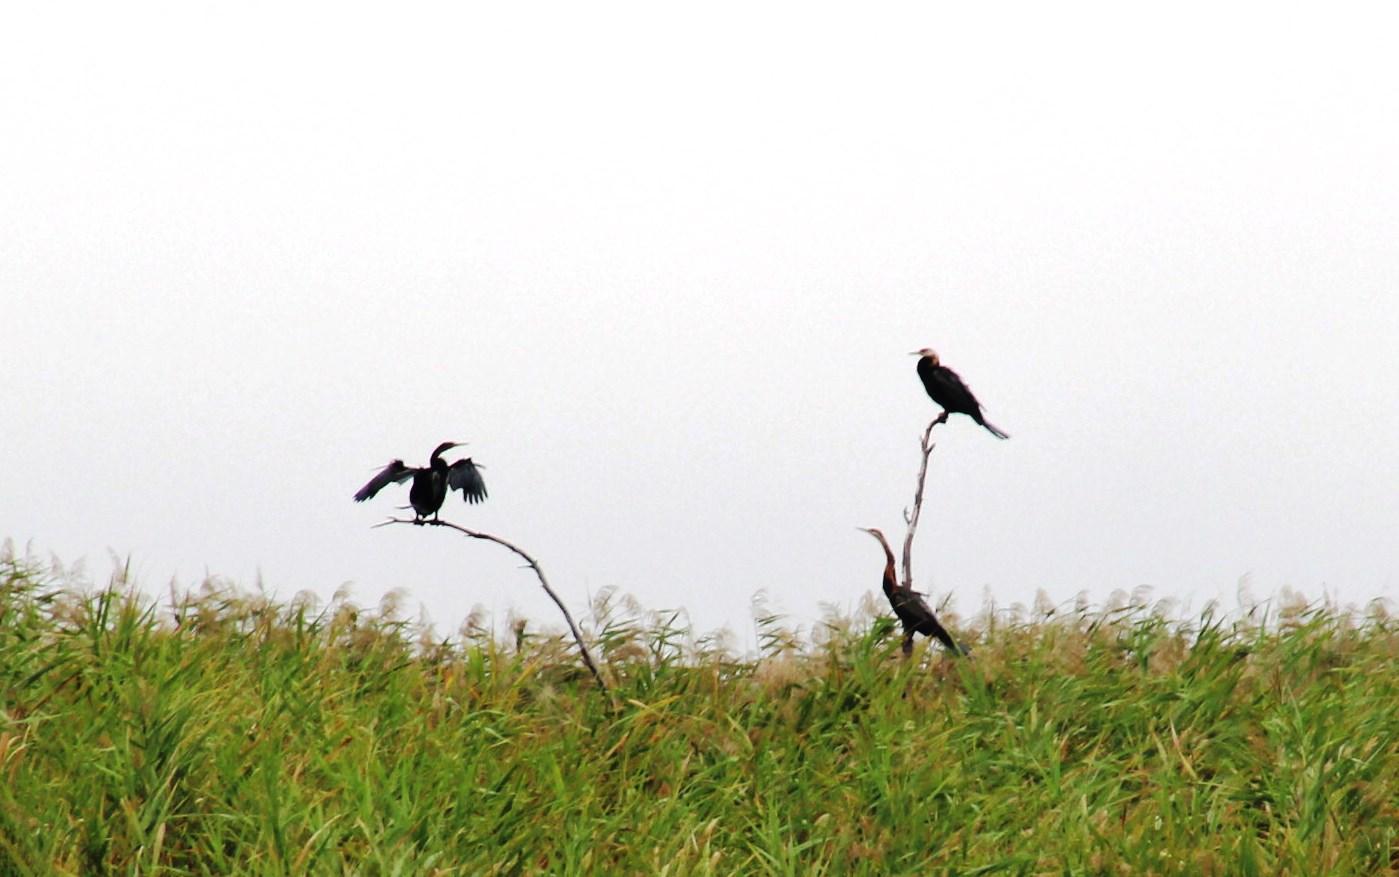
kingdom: Animalia
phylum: Chordata
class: Aves
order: Suliformes
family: Anhingidae
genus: Anhinga
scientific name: Anhinga rufa
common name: African darter
